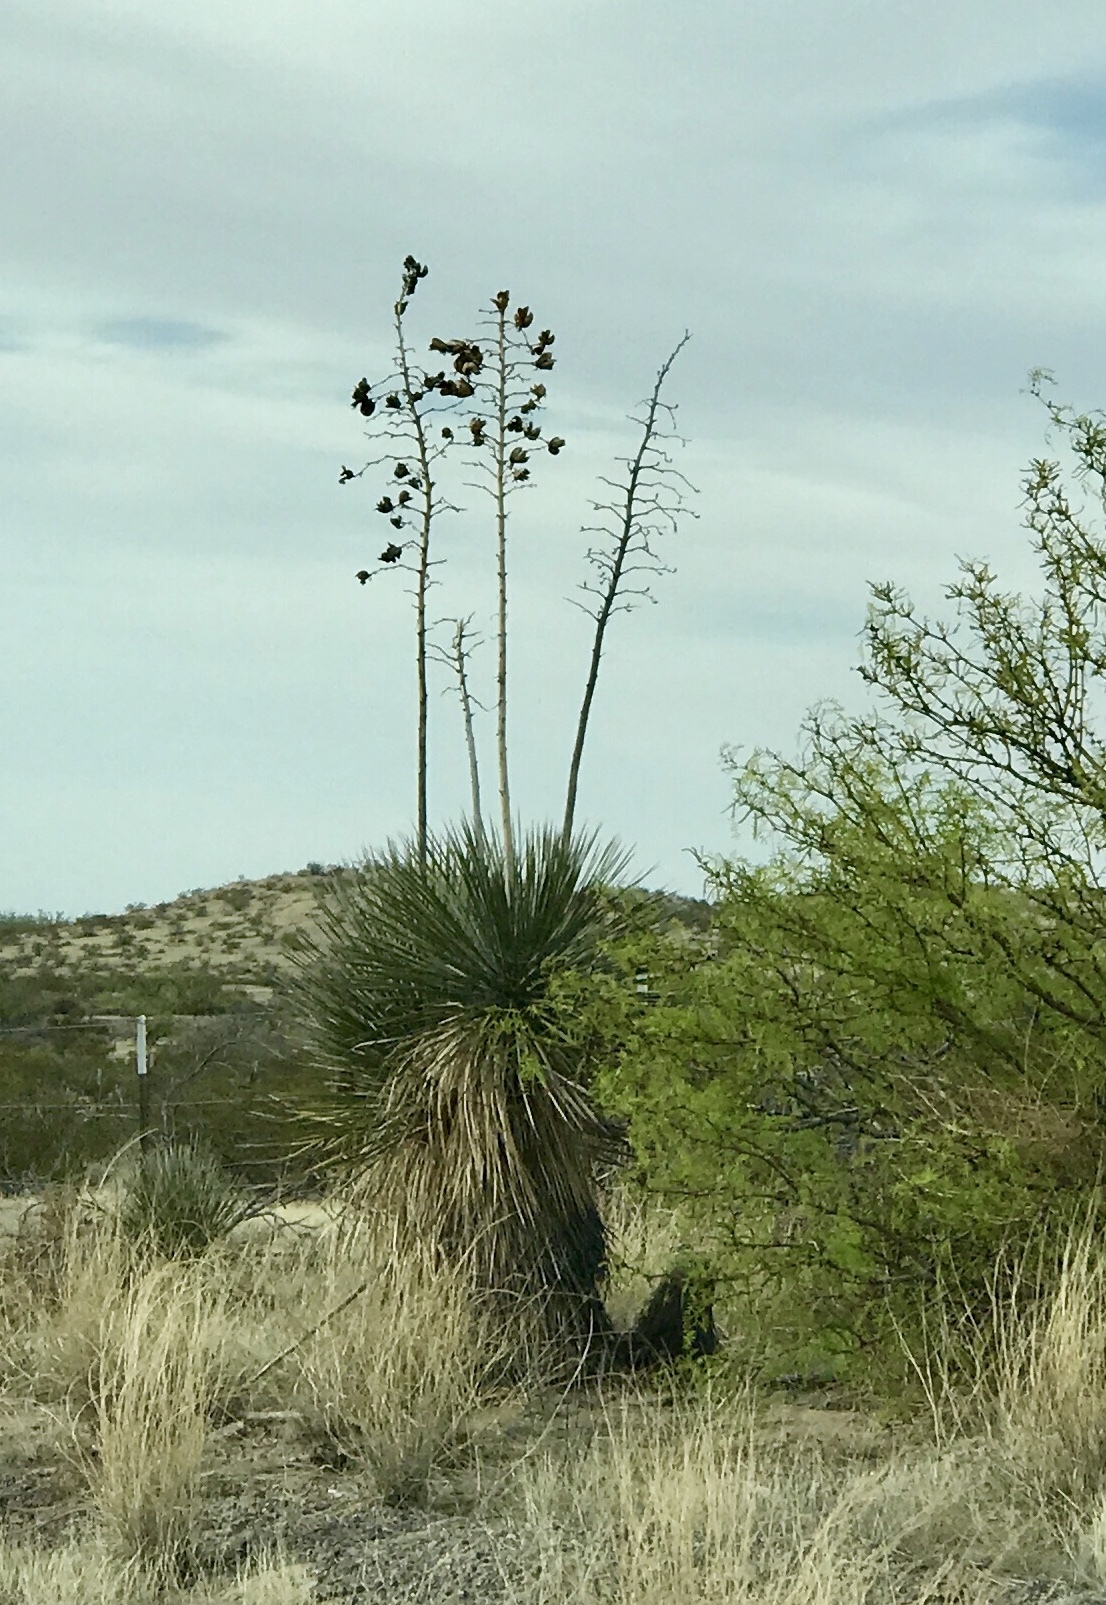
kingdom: Plantae
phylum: Tracheophyta
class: Liliopsida
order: Asparagales
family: Asparagaceae
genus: Yucca
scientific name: Yucca elata
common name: Palmella
